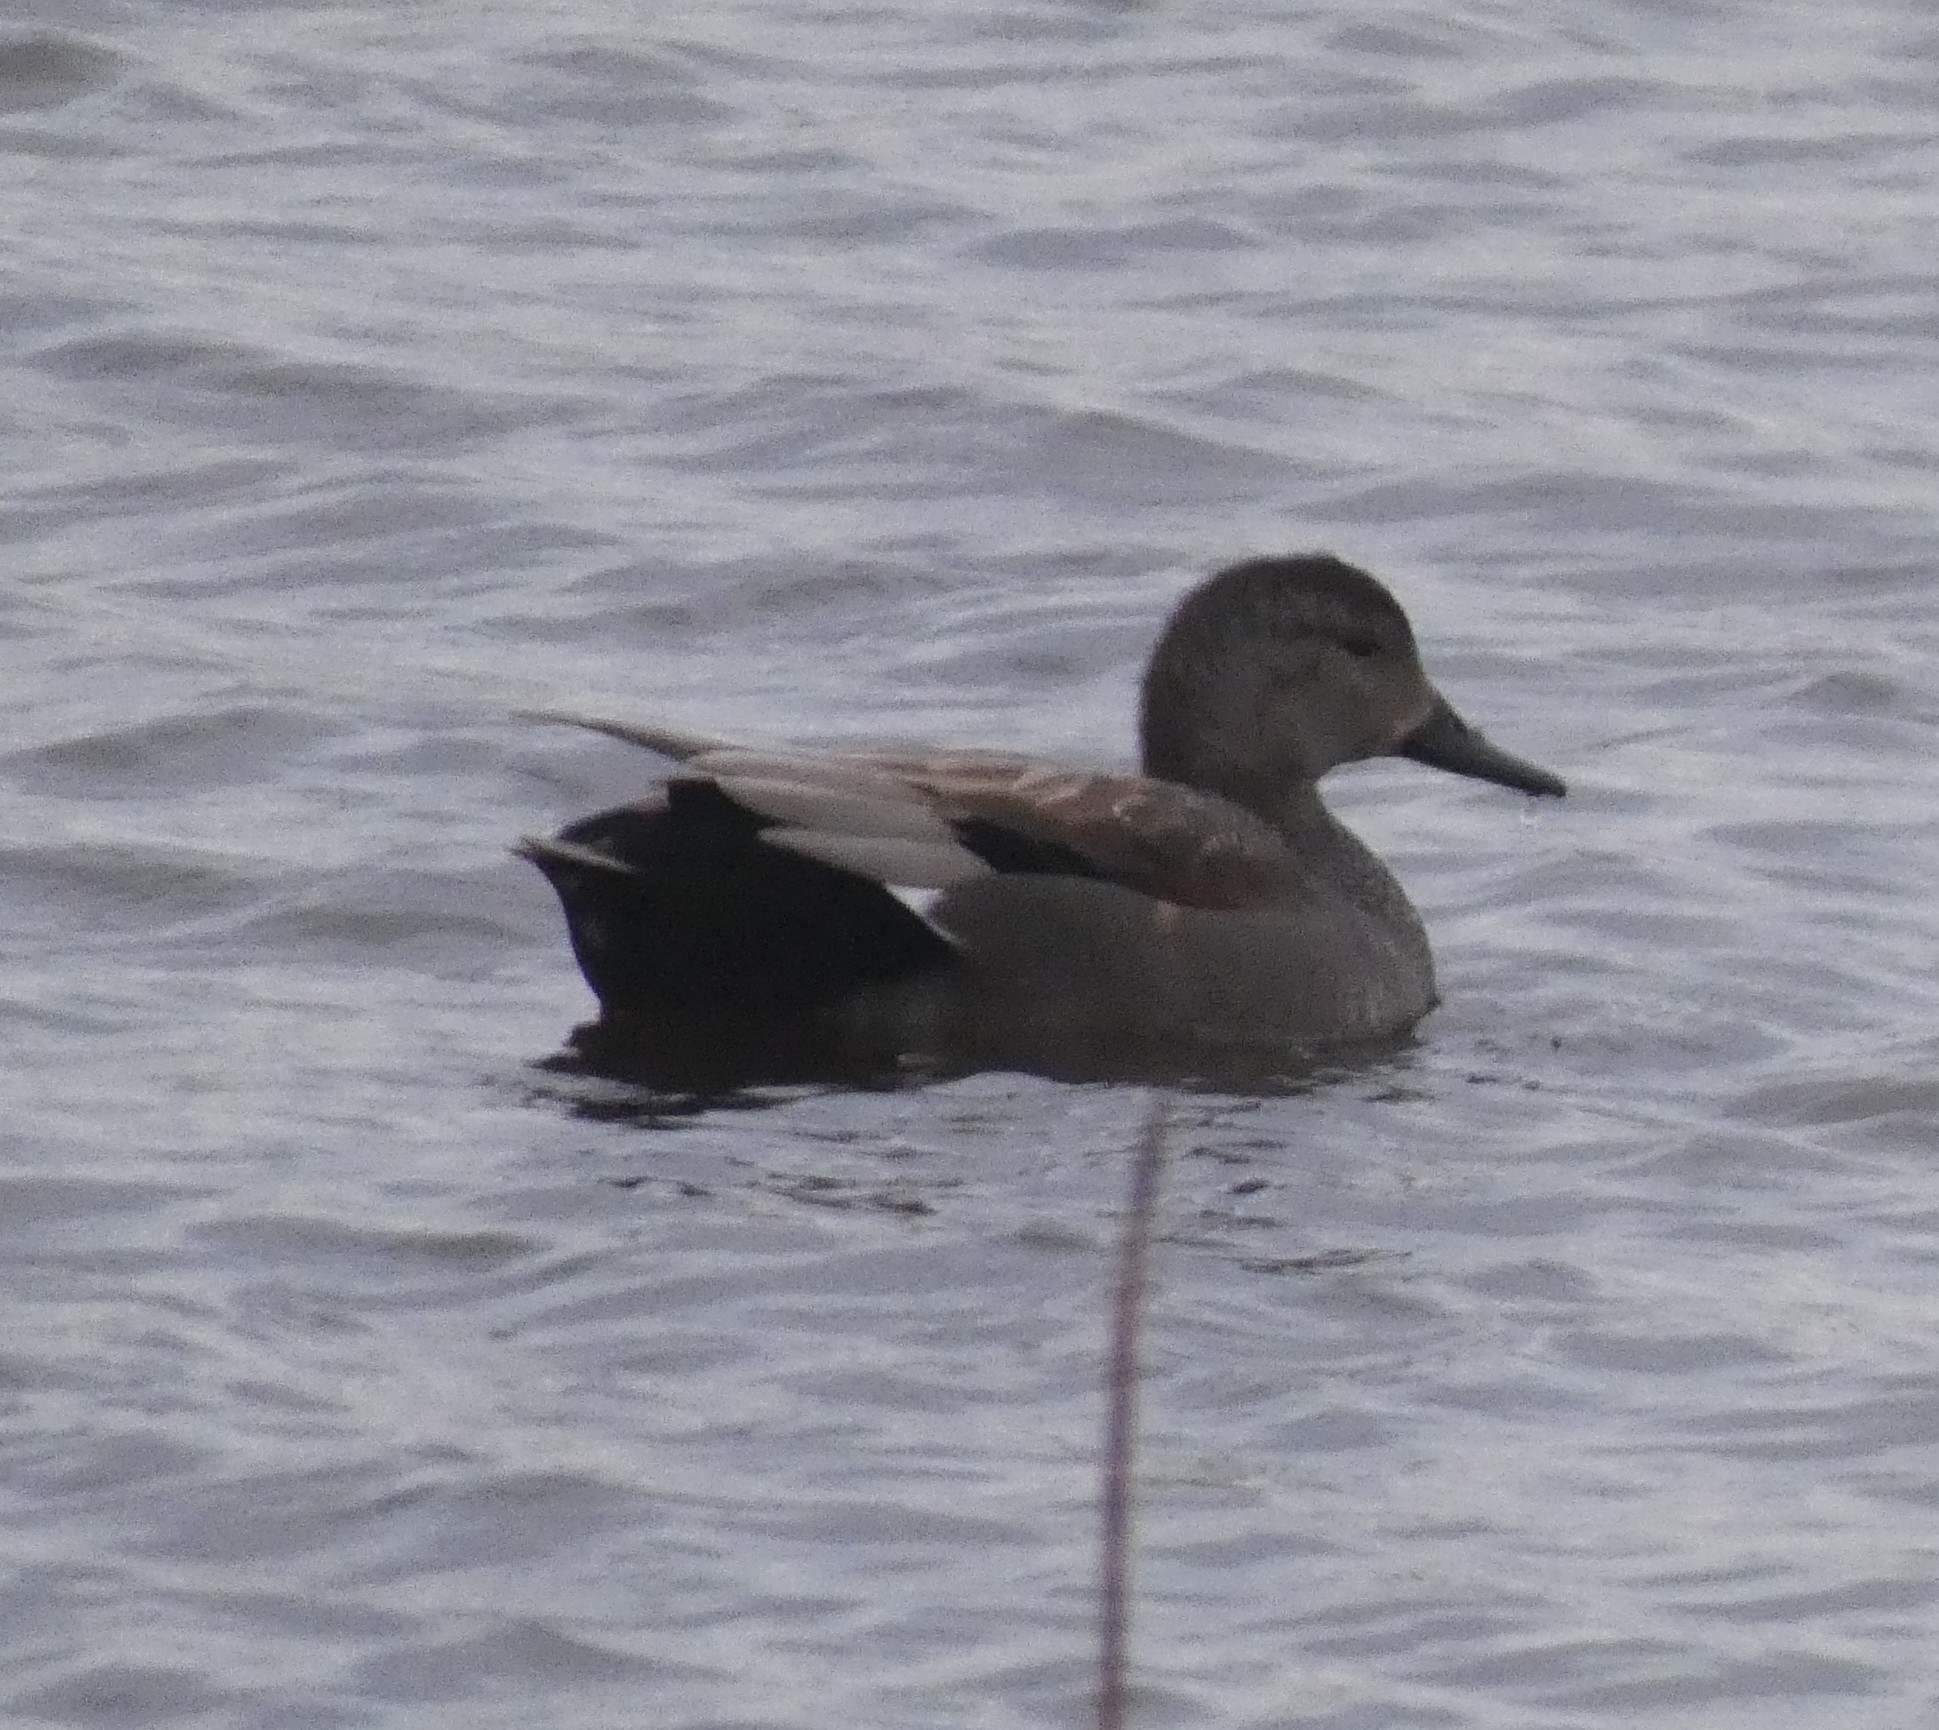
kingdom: Animalia
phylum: Chordata
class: Aves
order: Anseriformes
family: Anatidae
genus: Mareca
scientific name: Mareca strepera
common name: Gadwall
